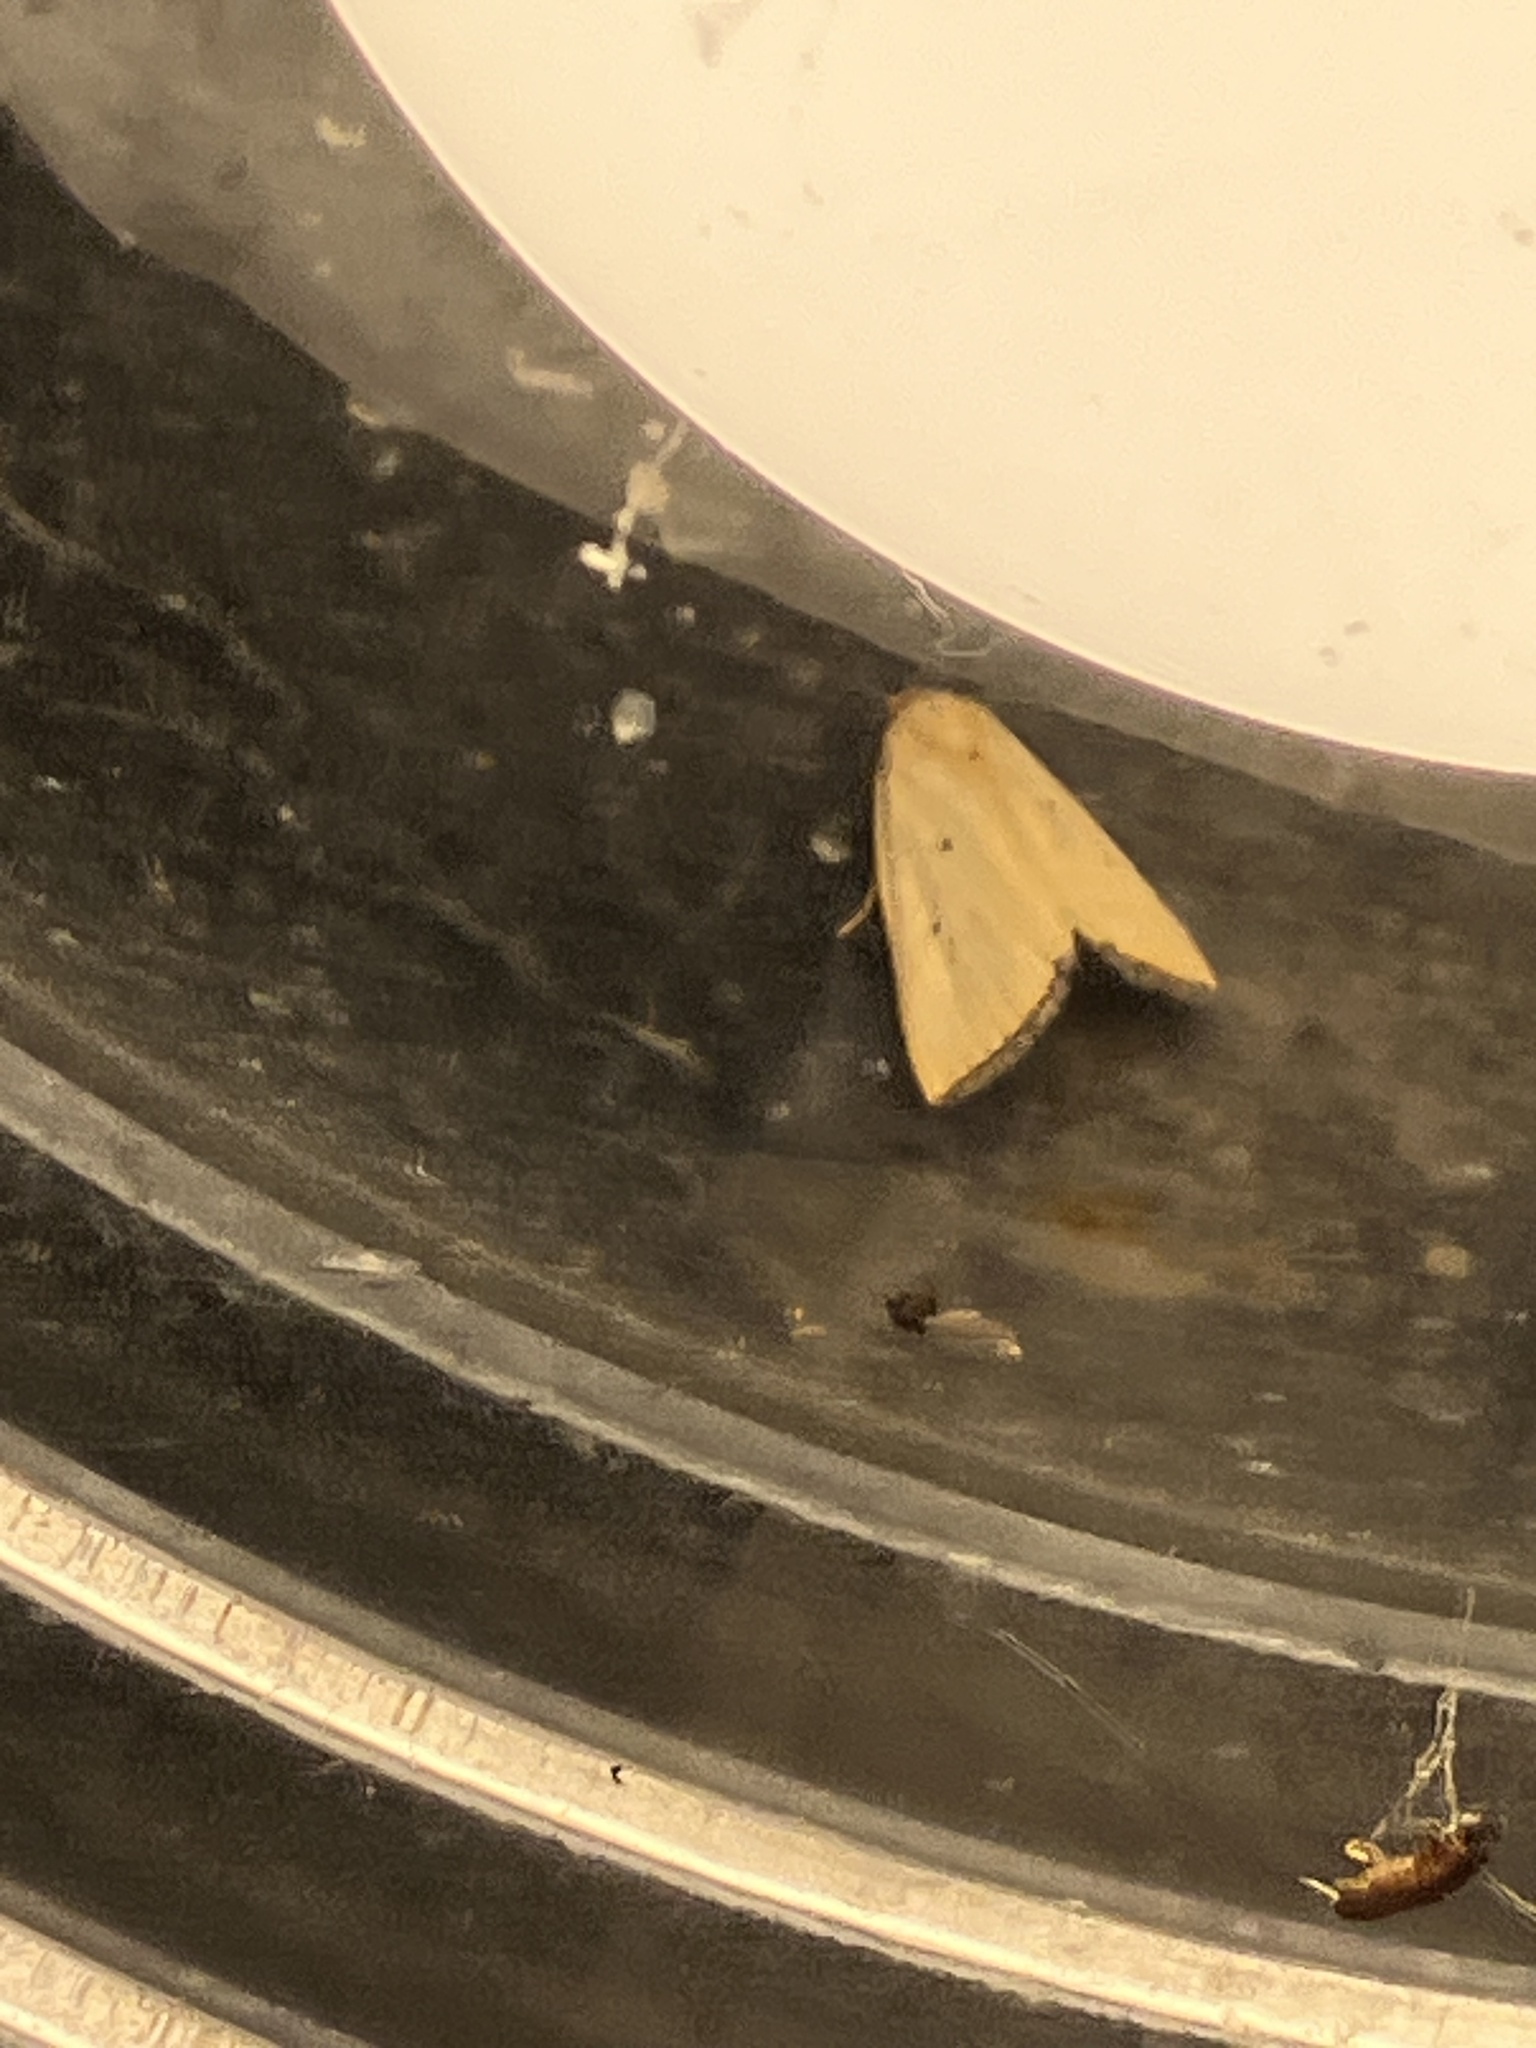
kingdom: Animalia
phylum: Arthropoda
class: Insecta
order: Lepidoptera
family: Noctuidae
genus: Marimatha
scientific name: Marimatha nigrofimbria
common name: Black-bordered lemon moth
